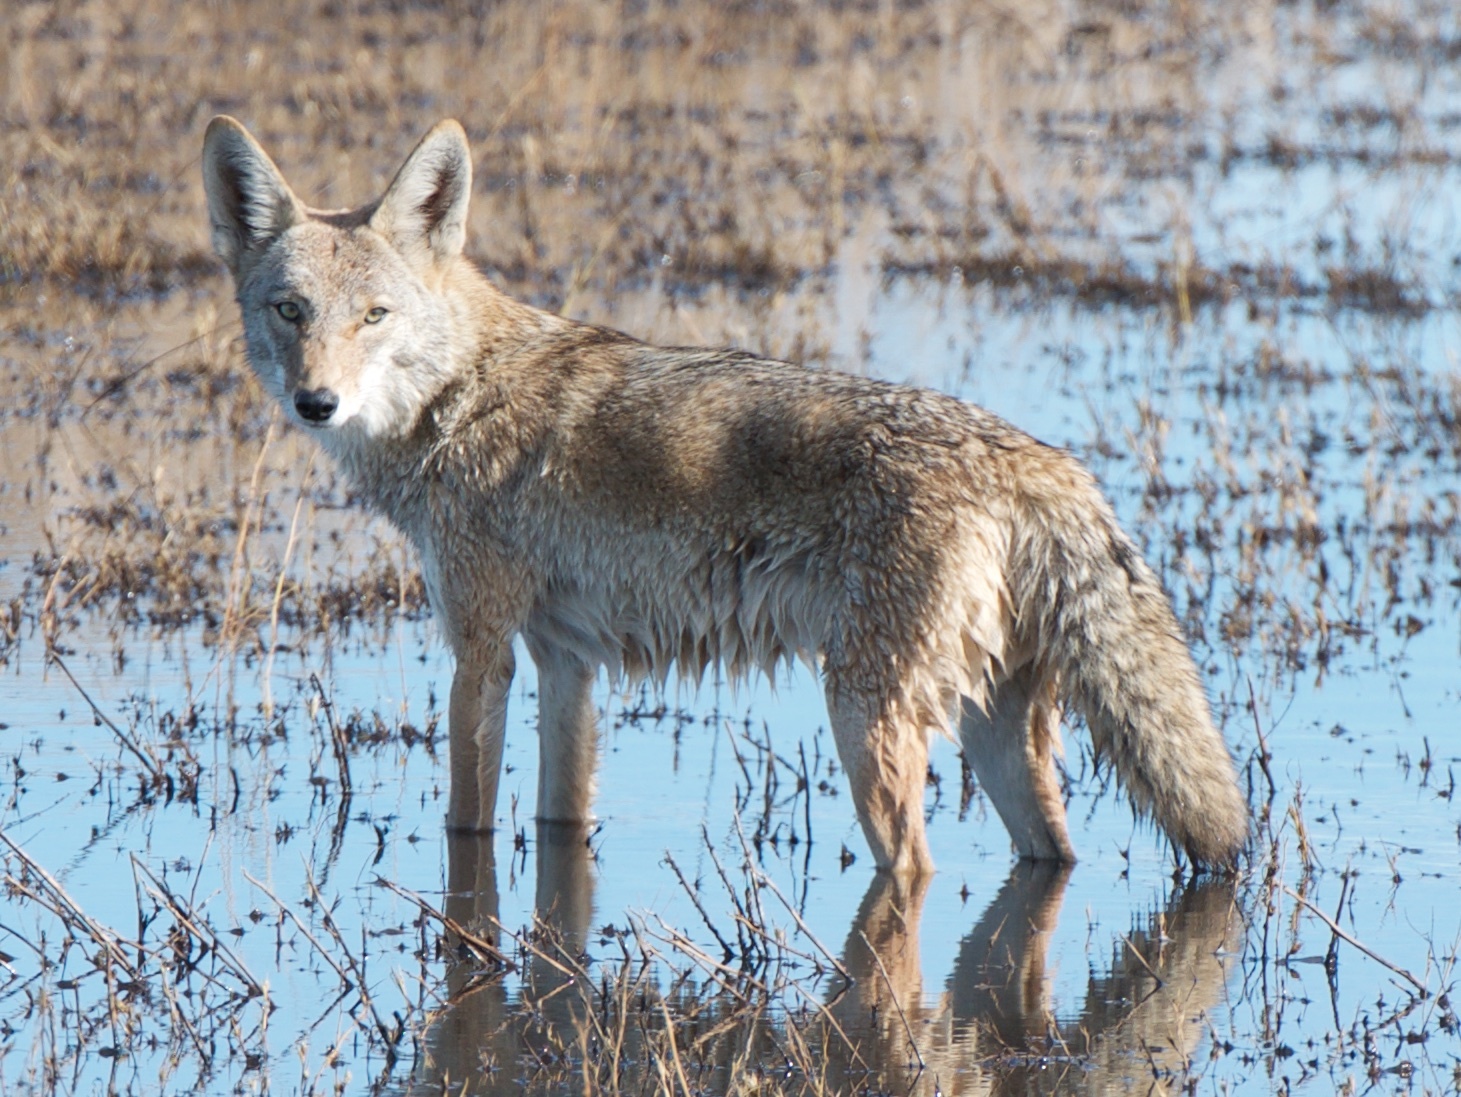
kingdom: Animalia
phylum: Chordata
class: Mammalia
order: Carnivora
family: Canidae
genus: Canis
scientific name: Canis latrans
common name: Coyote
